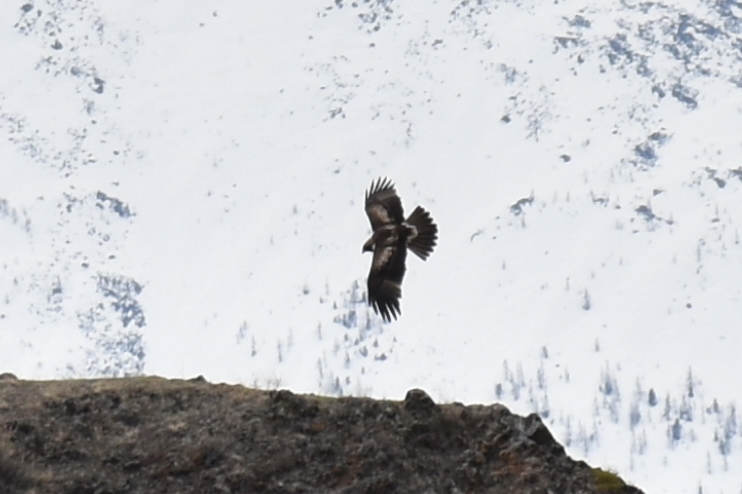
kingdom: Animalia
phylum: Chordata
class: Aves
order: Accipitriformes
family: Accipitridae
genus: Hieraaetus
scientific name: Hieraaetus pennatus
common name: Booted eagle
